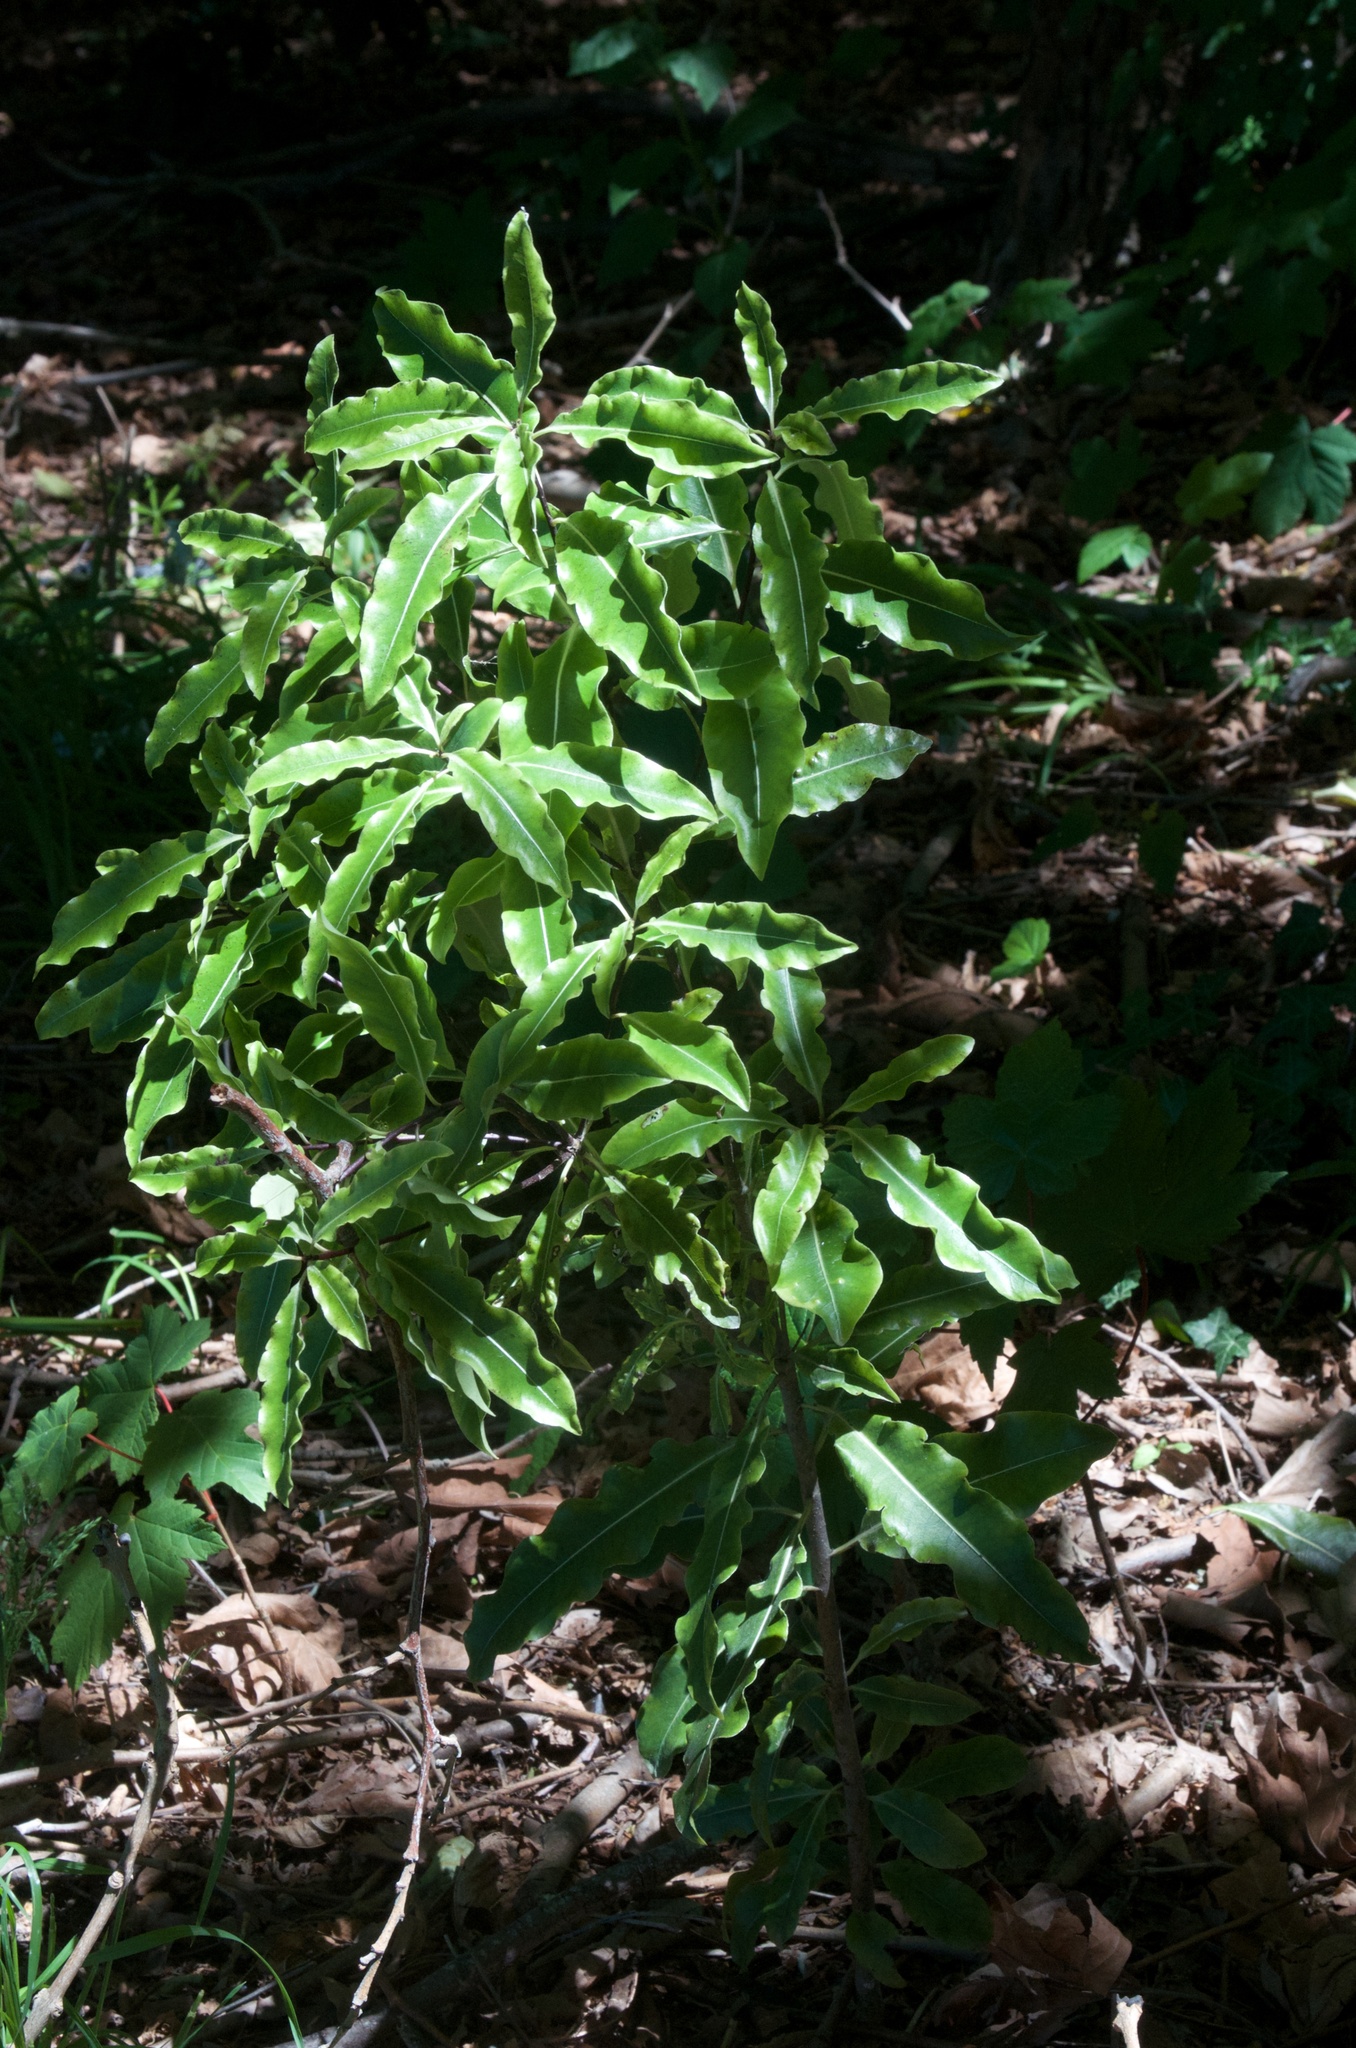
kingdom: Plantae
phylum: Tracheophyta
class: Magnoliopsida
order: Apiales
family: Pittosporaceae
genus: Pittosporum
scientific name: Pittosporum eugenioides
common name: Lemonwood
